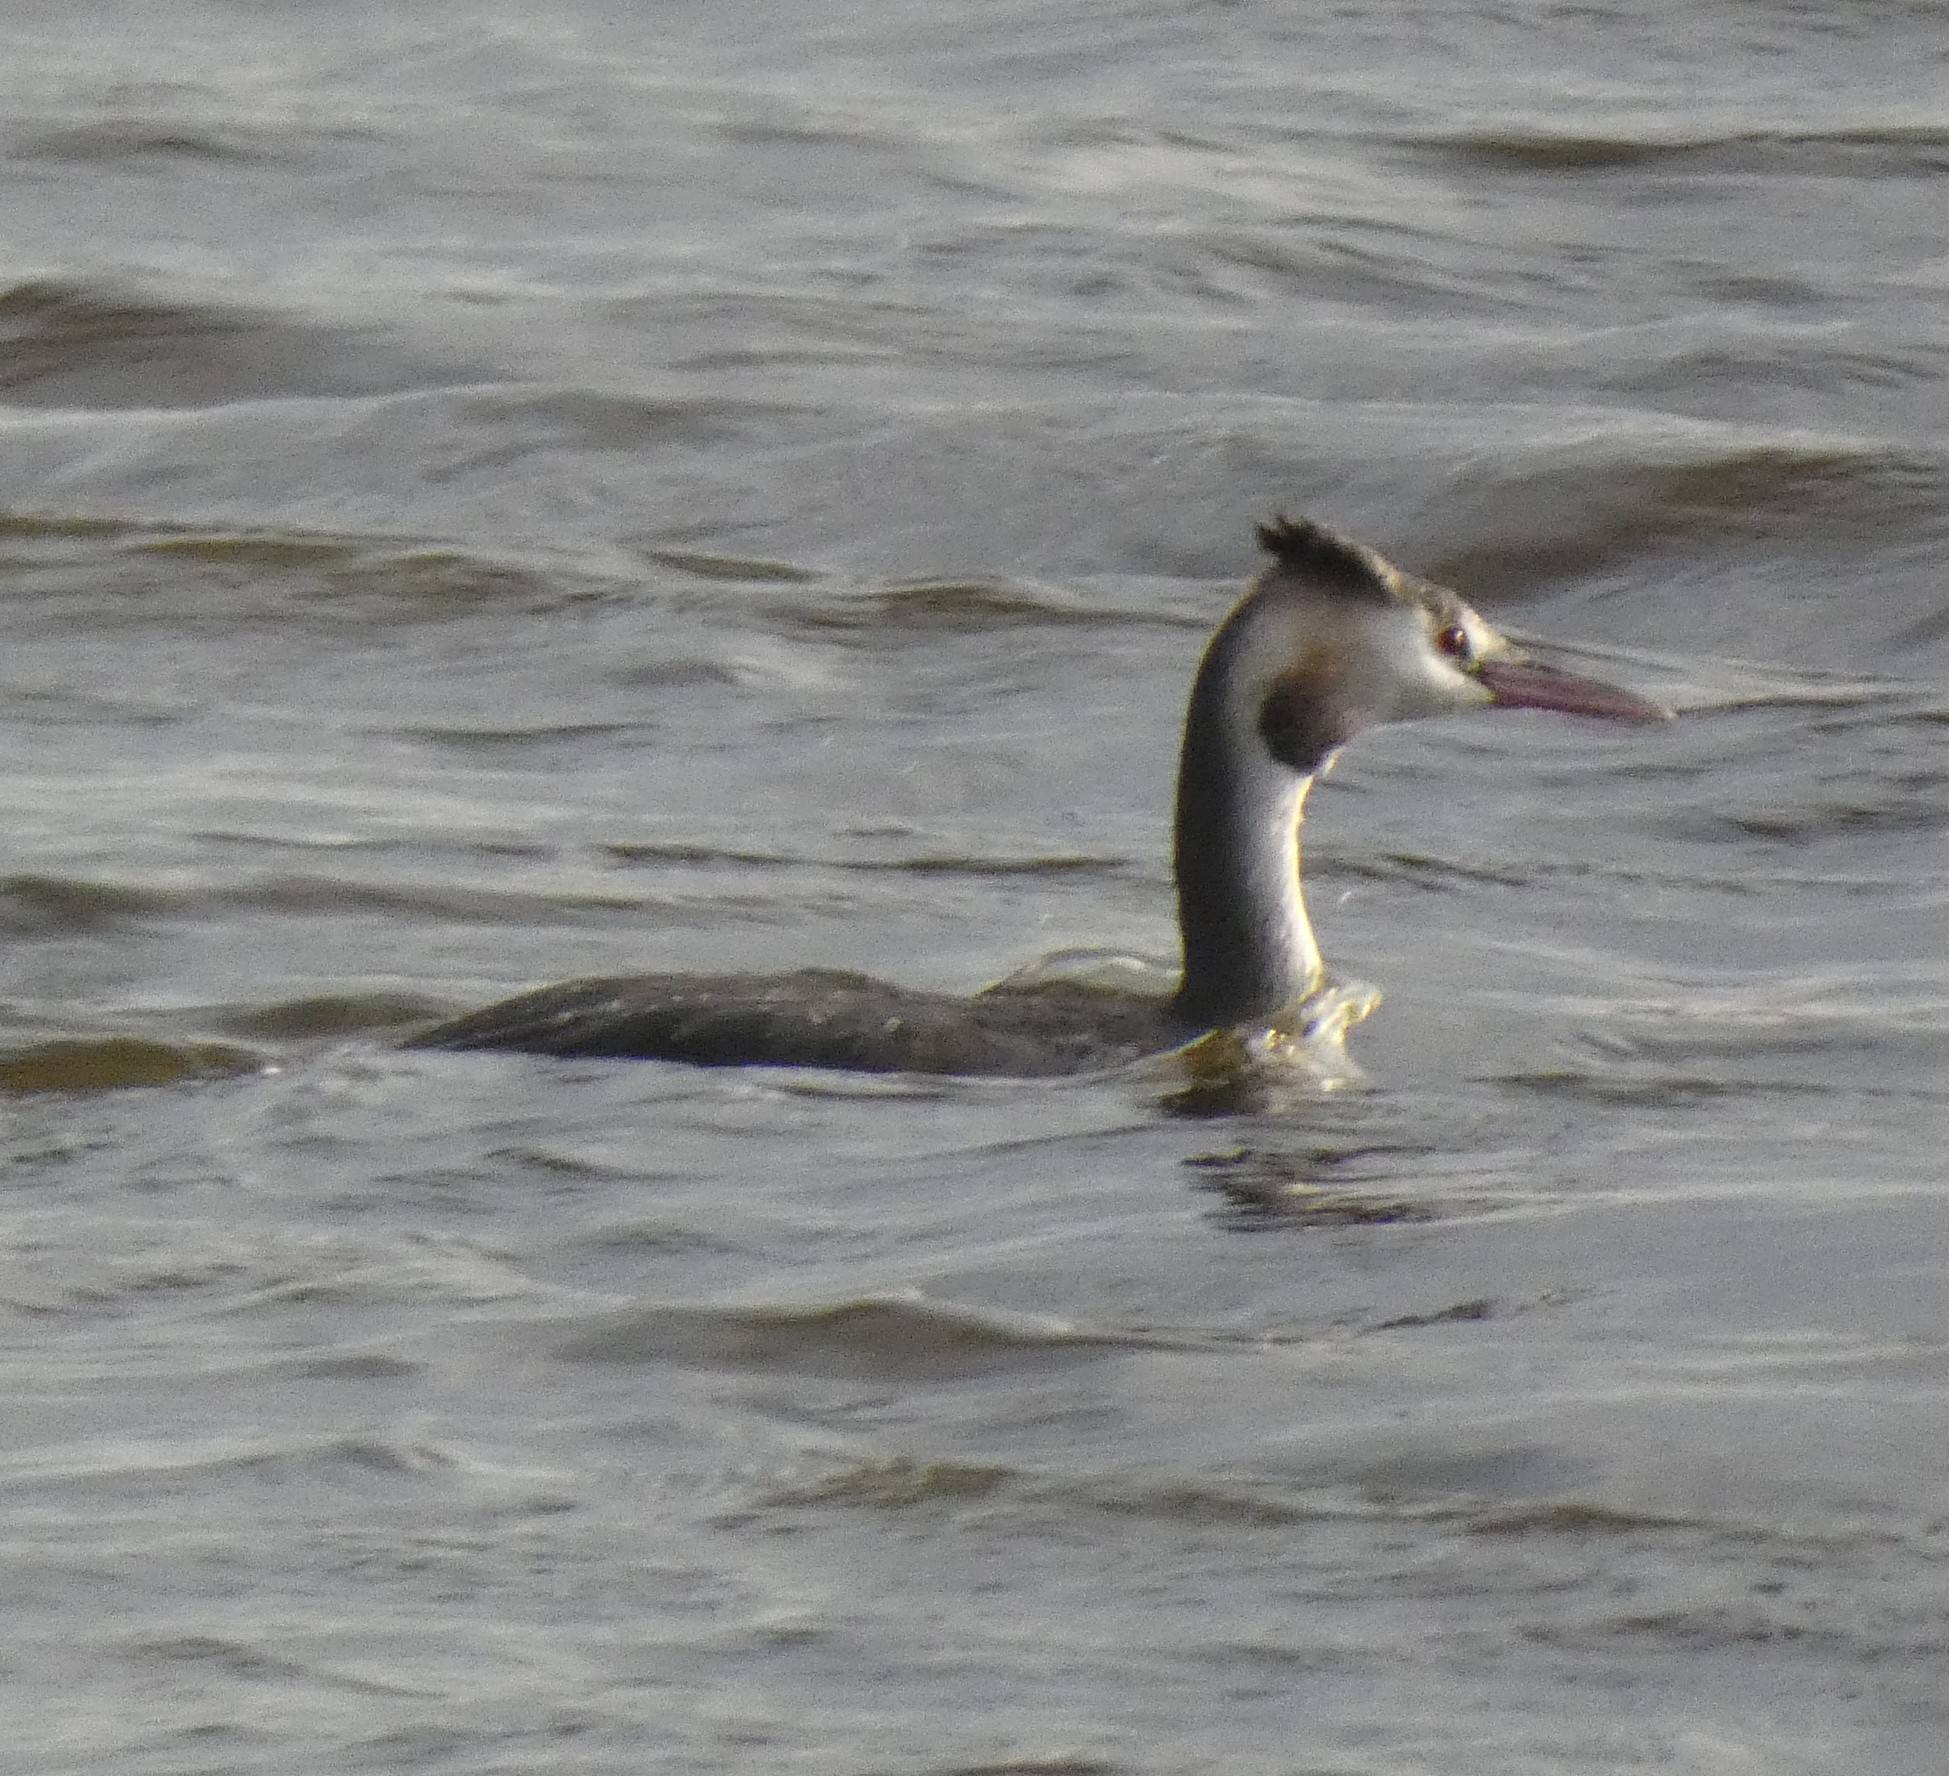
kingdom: Animalia
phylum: Chordata
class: Aves
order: Podicipediformes
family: Podicipedidae
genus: Podiceps
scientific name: Podiceps cristatus
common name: Great crested grebe
